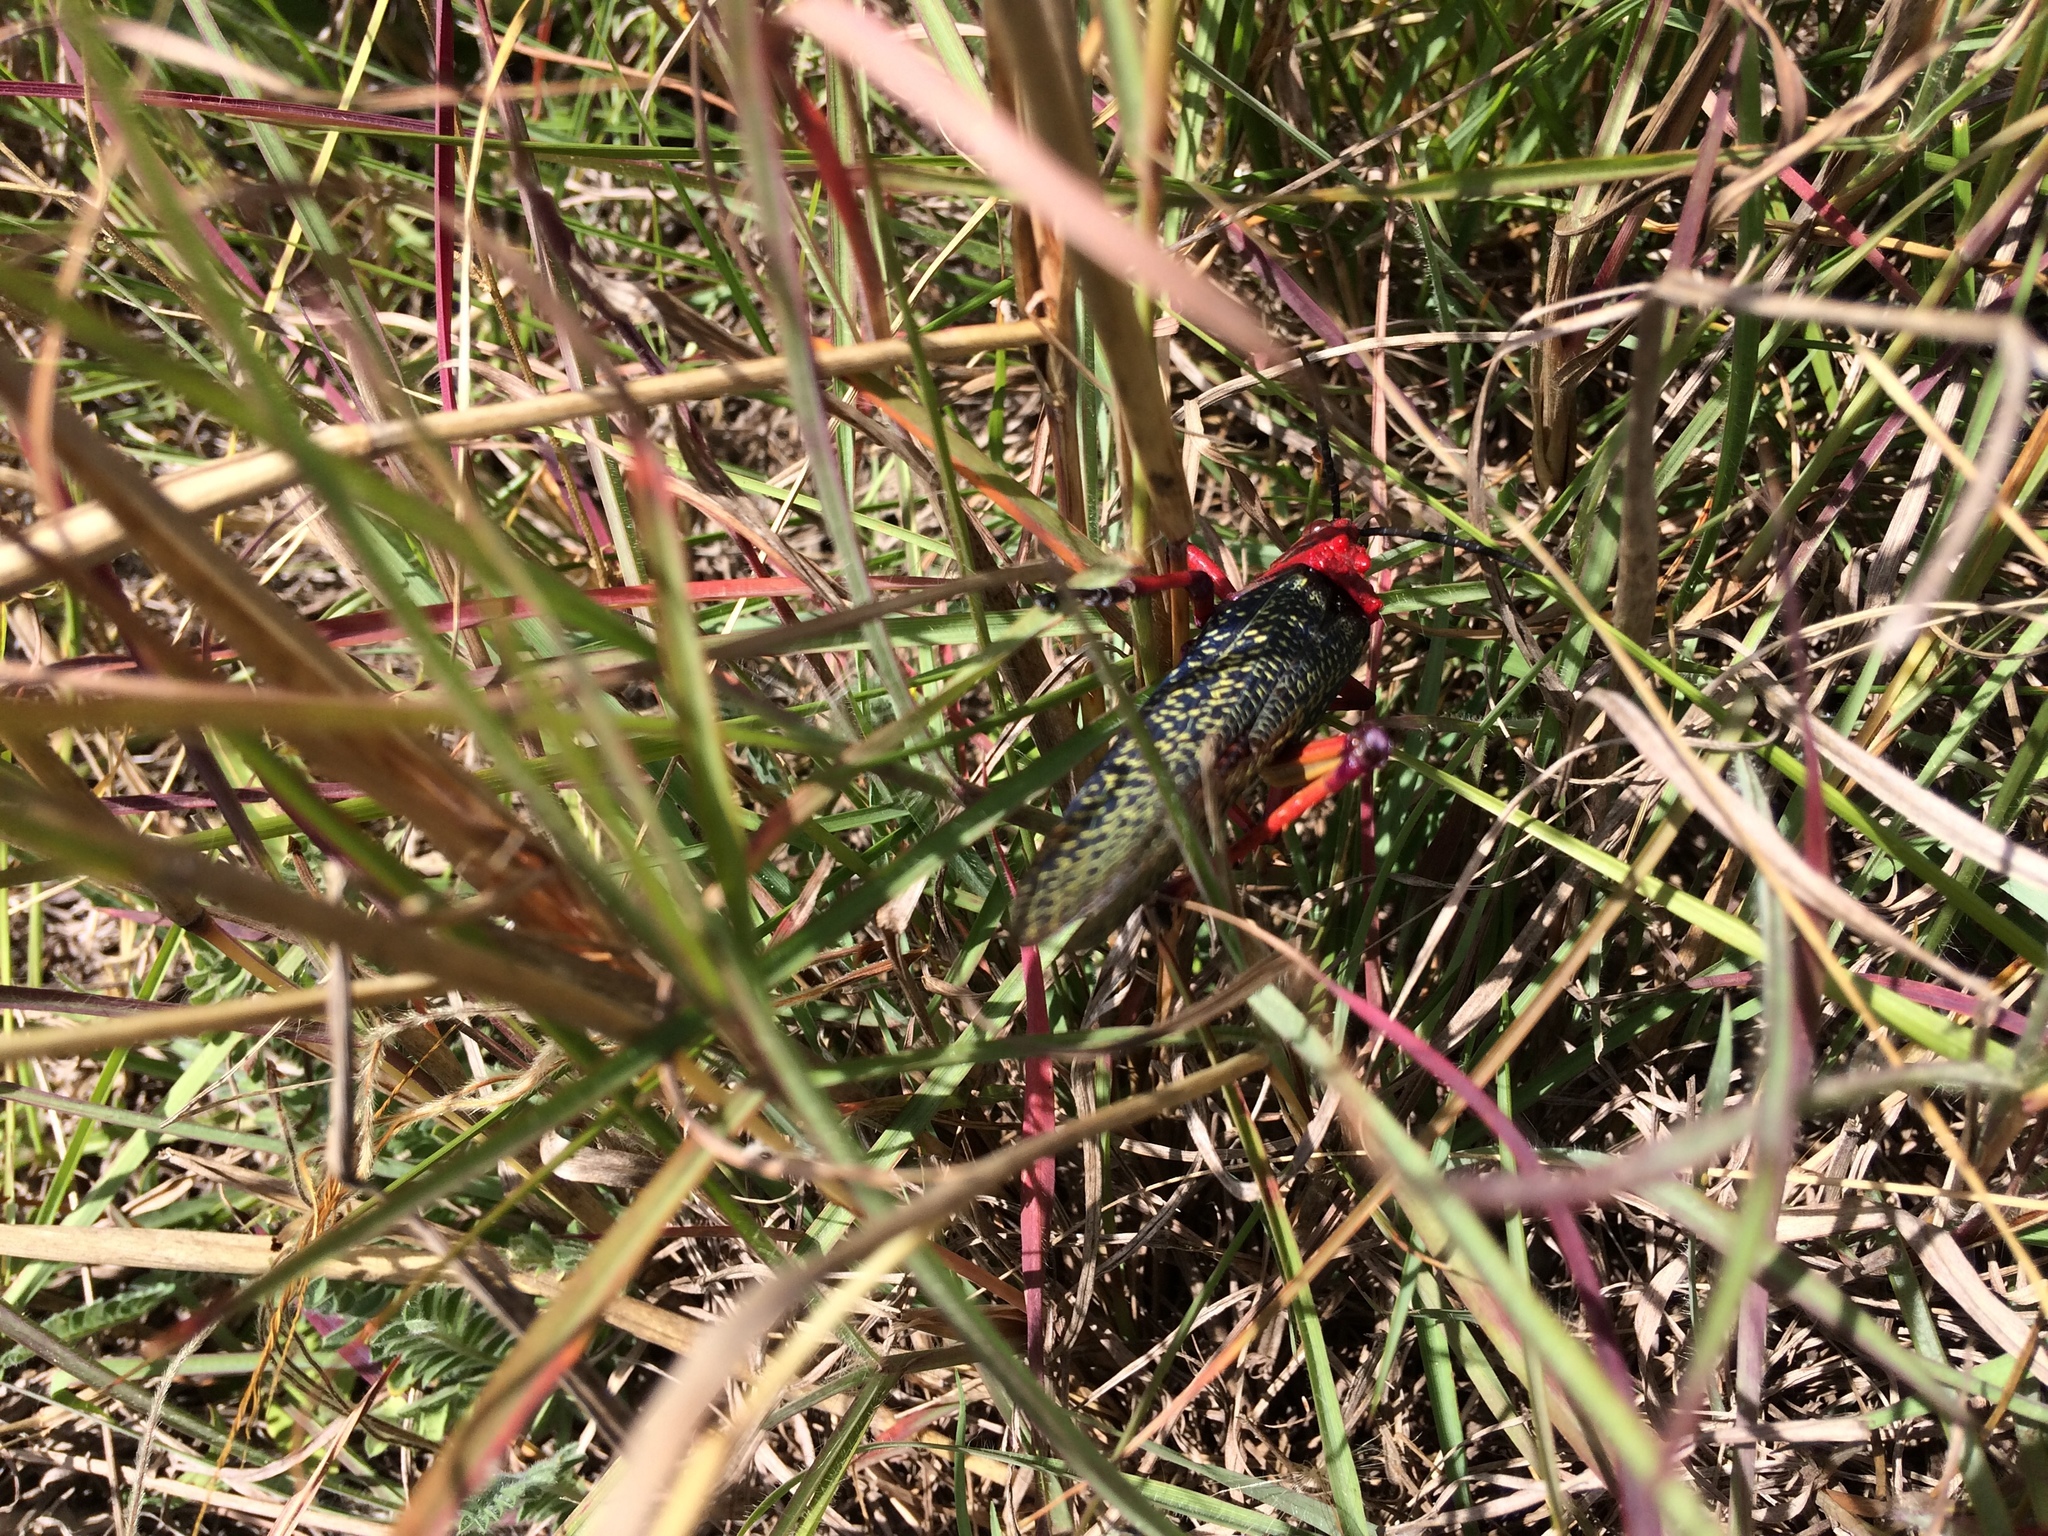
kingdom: Animalia
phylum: Arthropoda
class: Insecta
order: Orthoptera
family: Pyrgomorphidae
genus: Phymateus
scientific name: Phymateus morbillosus
